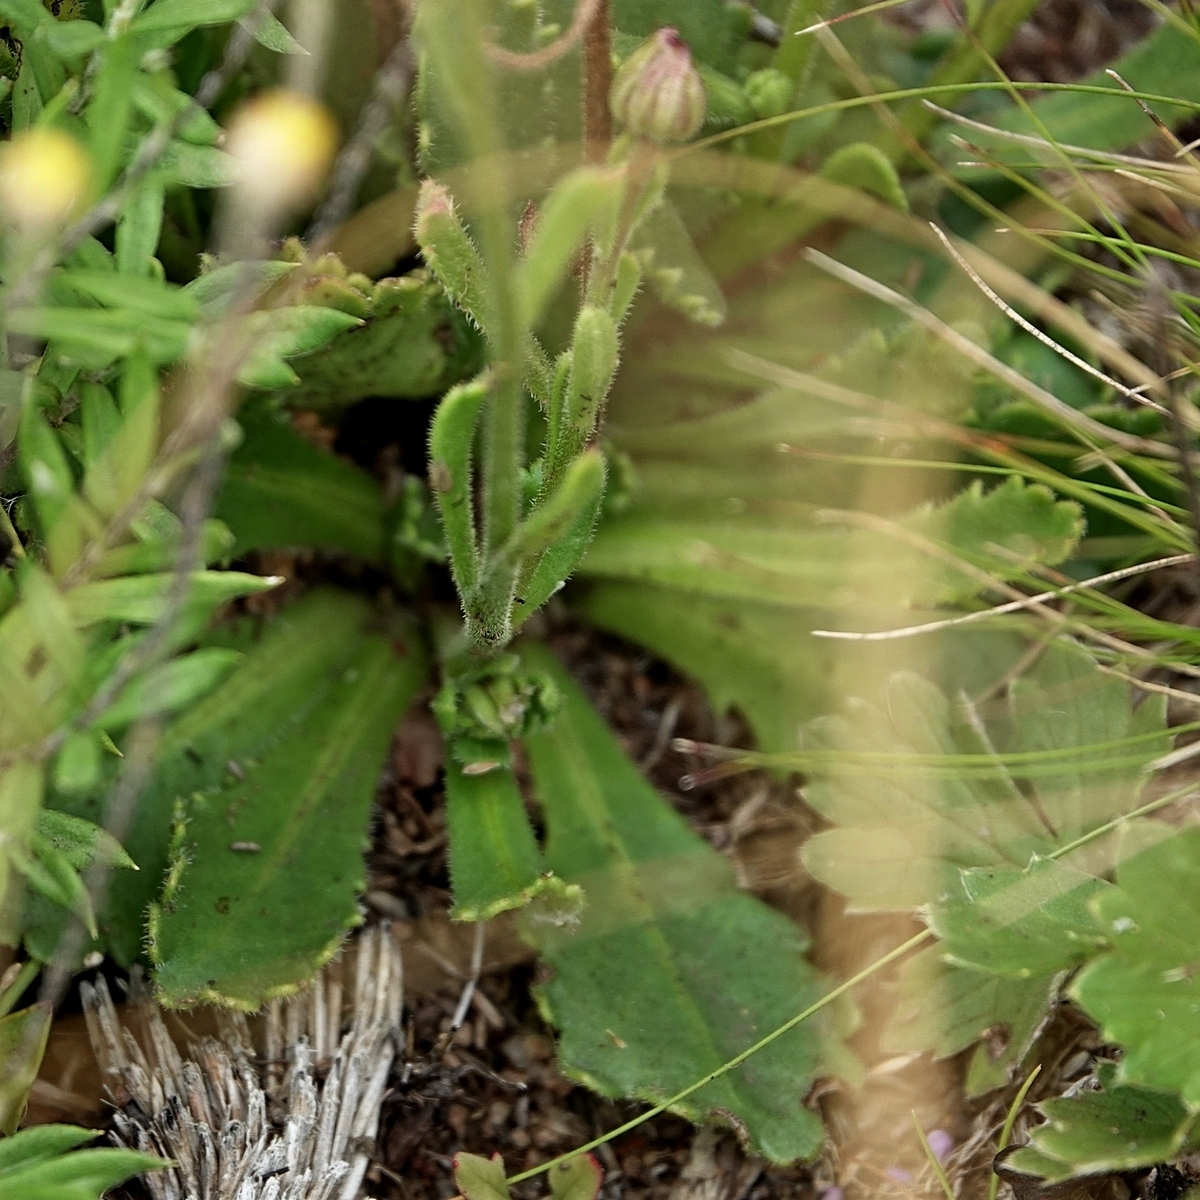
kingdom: Plantae
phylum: Tracheophyta
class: Magnoliopsida
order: Asterales
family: Asteraceae
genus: Brachyscome
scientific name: Brachyscome spathulata
